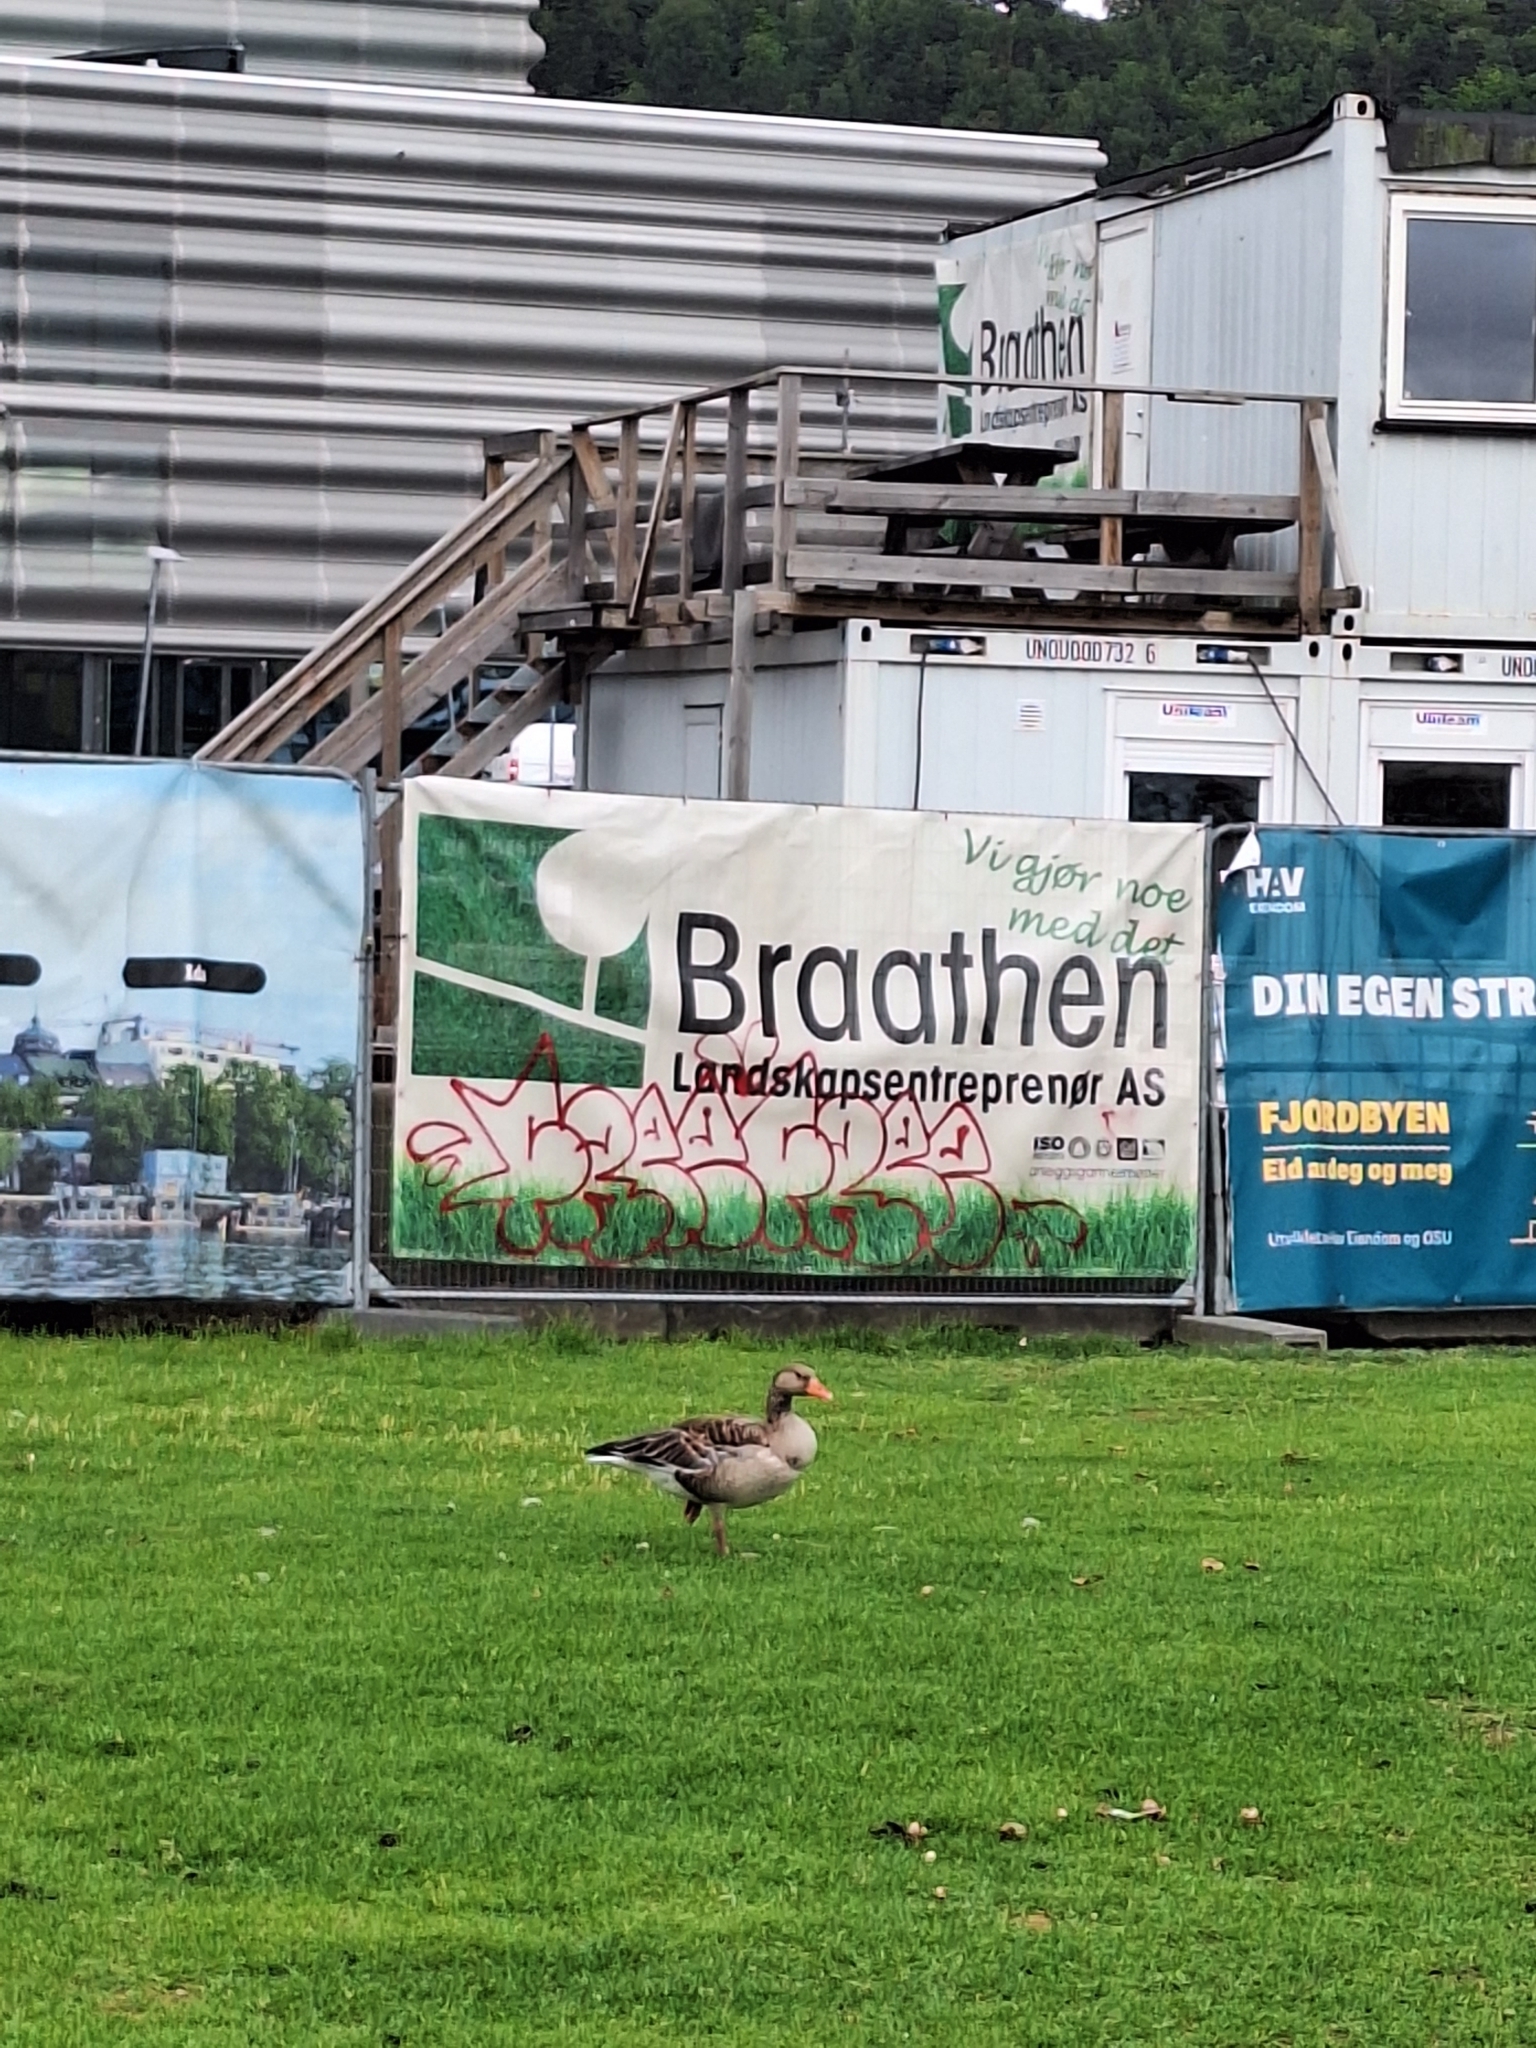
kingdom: Animalia
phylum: Chordata
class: Aves
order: Anseriformes
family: Anatidae
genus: Anser
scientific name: Anser anser
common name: Greylag goose
